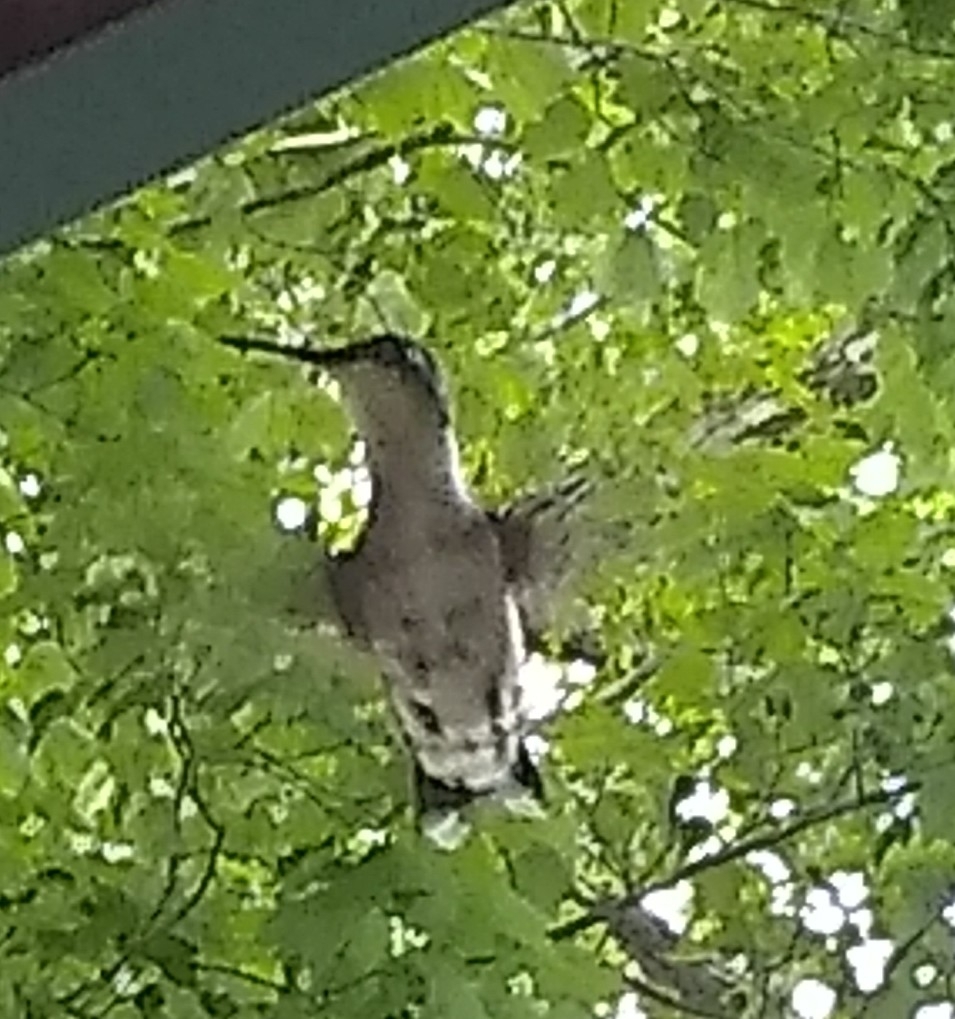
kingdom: Animalia
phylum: Chordata
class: Aves
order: Apodiformes
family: Trochilidae
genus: Archilochus
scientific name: Archilochus colubris
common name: Ruby-throated hummingbird
